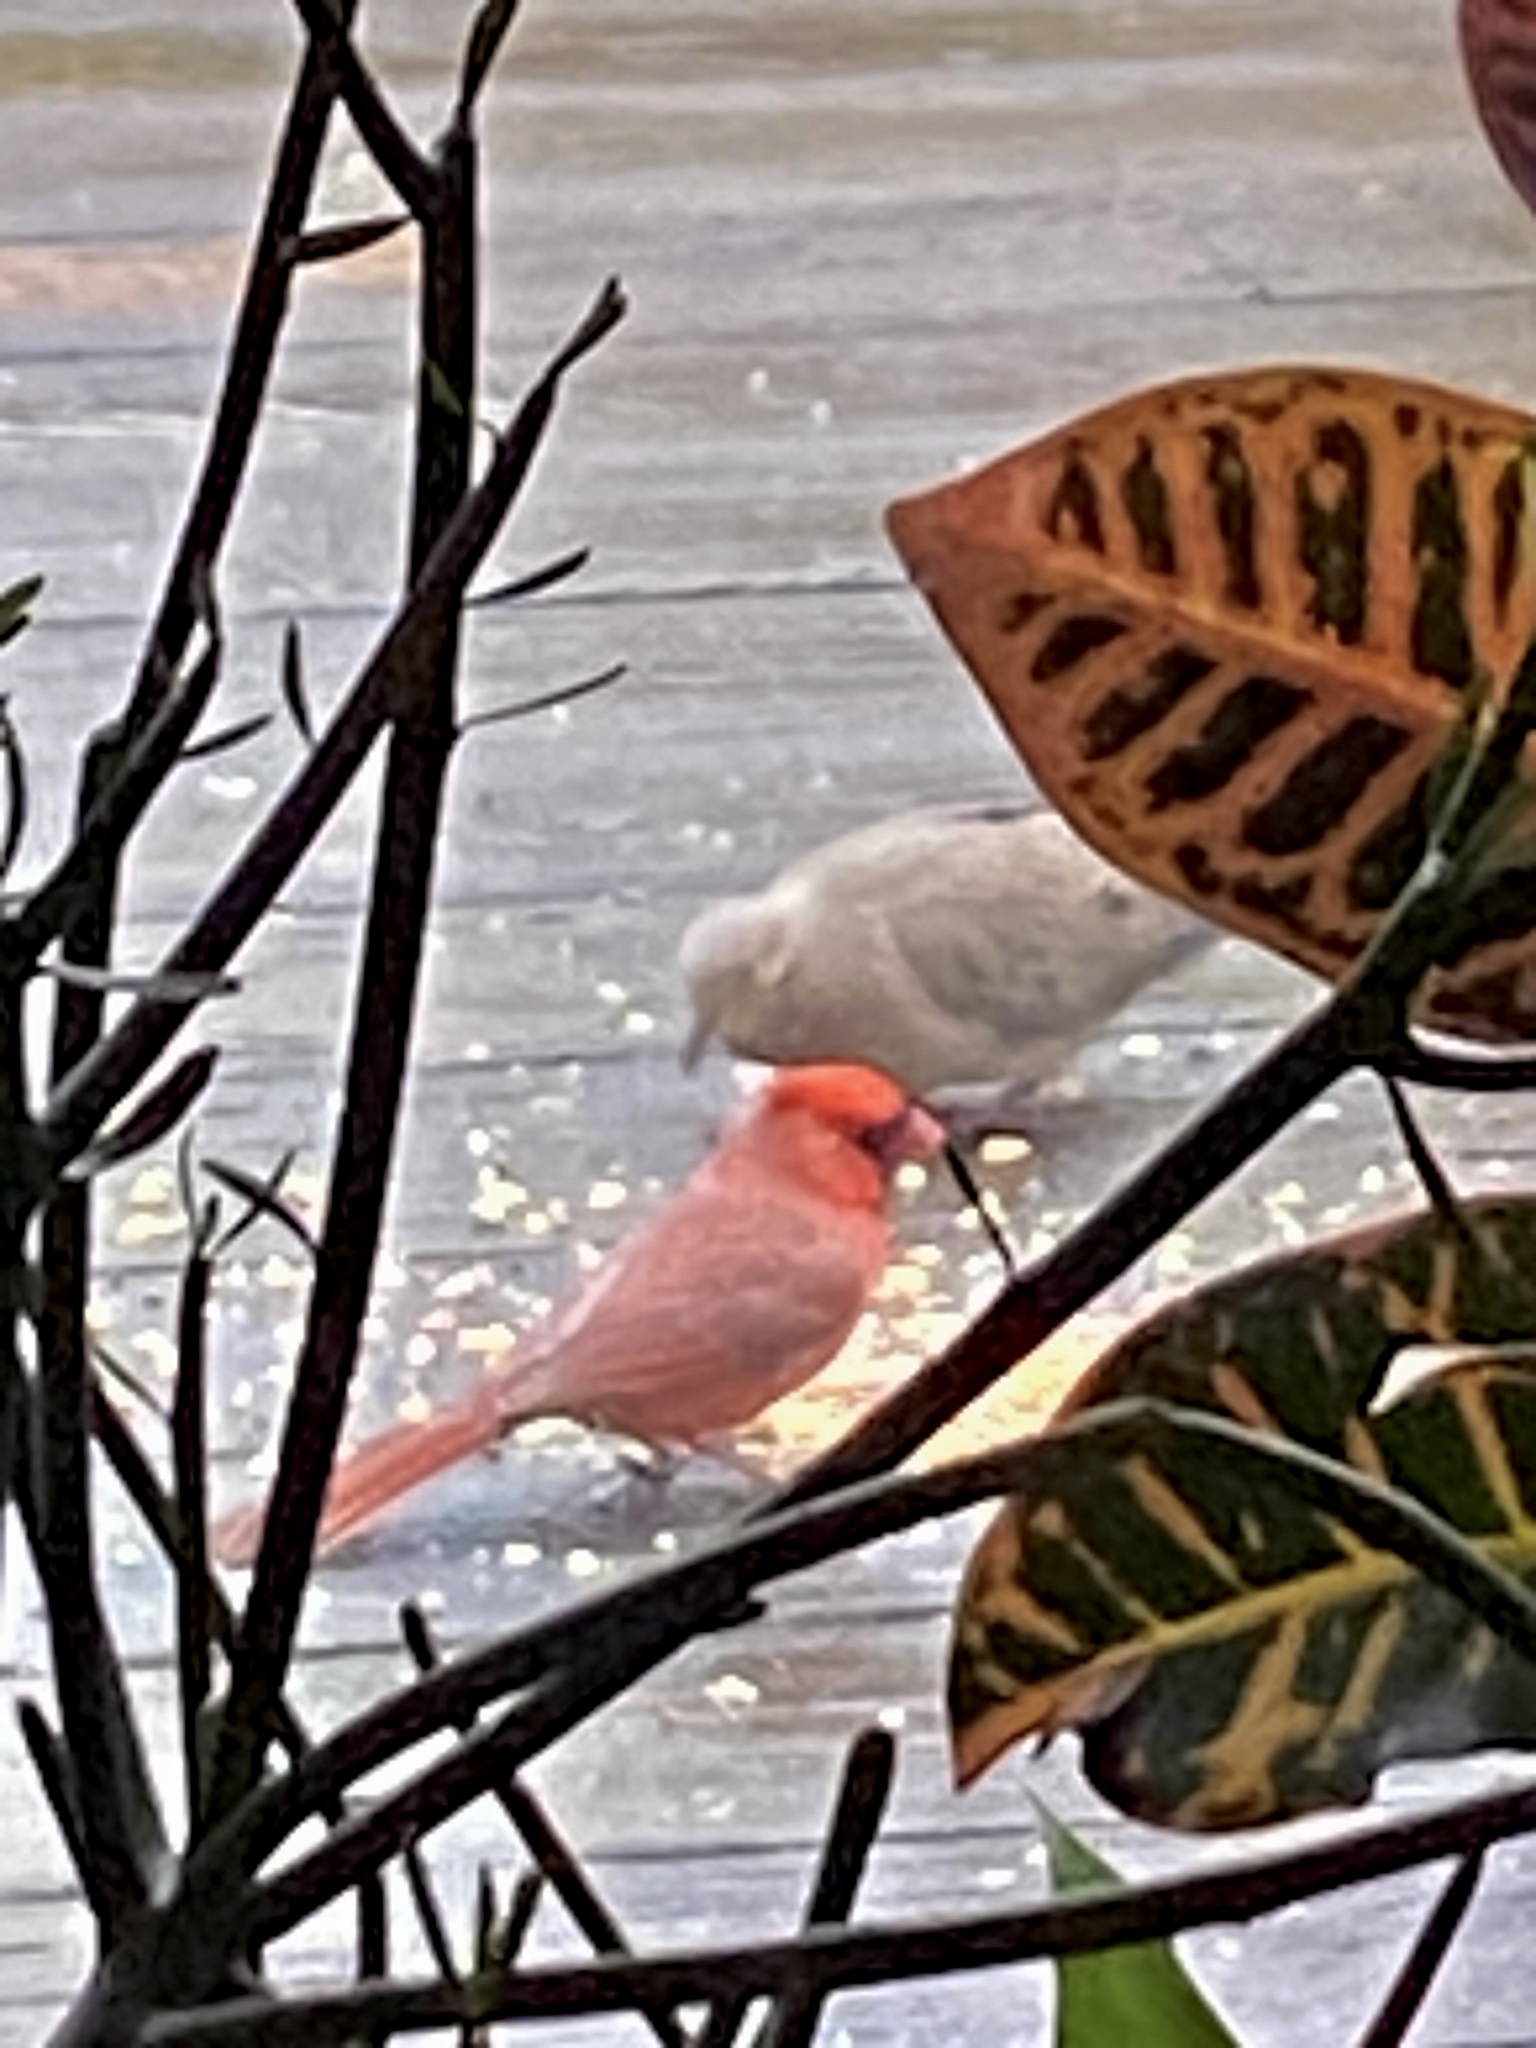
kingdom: Animalia
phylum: Chordata
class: Aves
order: Columbiformes
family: Columbidae
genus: Zenaida
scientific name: Zenaida macroura
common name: Mourning dove
